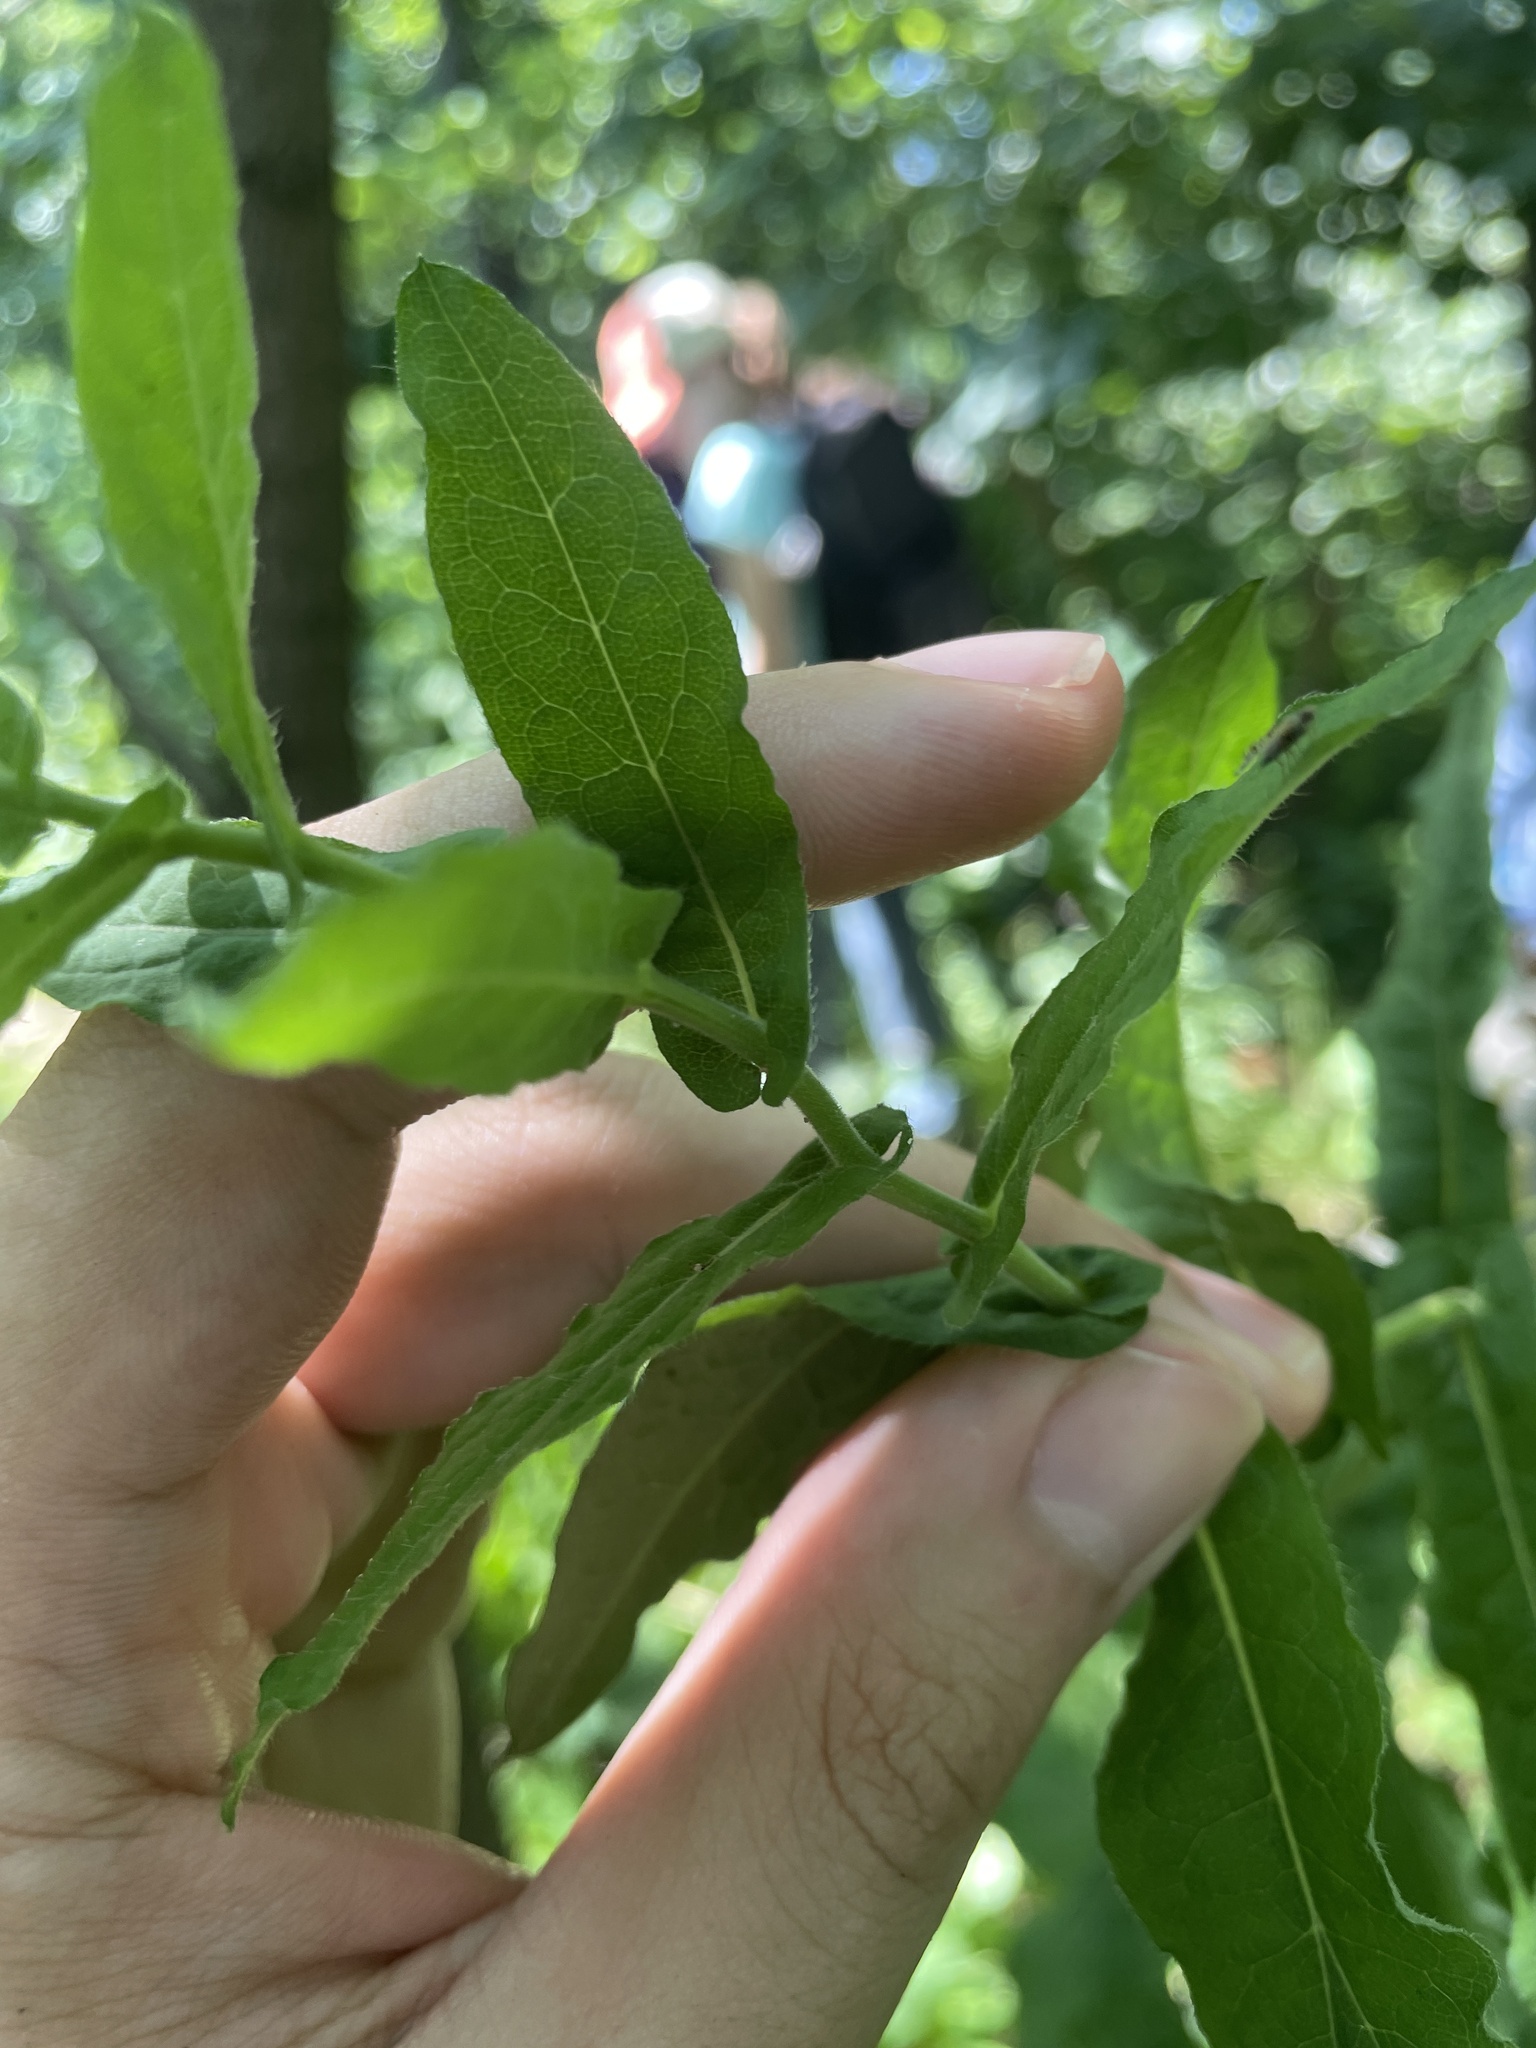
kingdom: Plantae
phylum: Tracheophyta
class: Magnoliopsida
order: Asterales
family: Asteraceae
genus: Symphyotrichum
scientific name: Symphyotrichum phlogifolium
